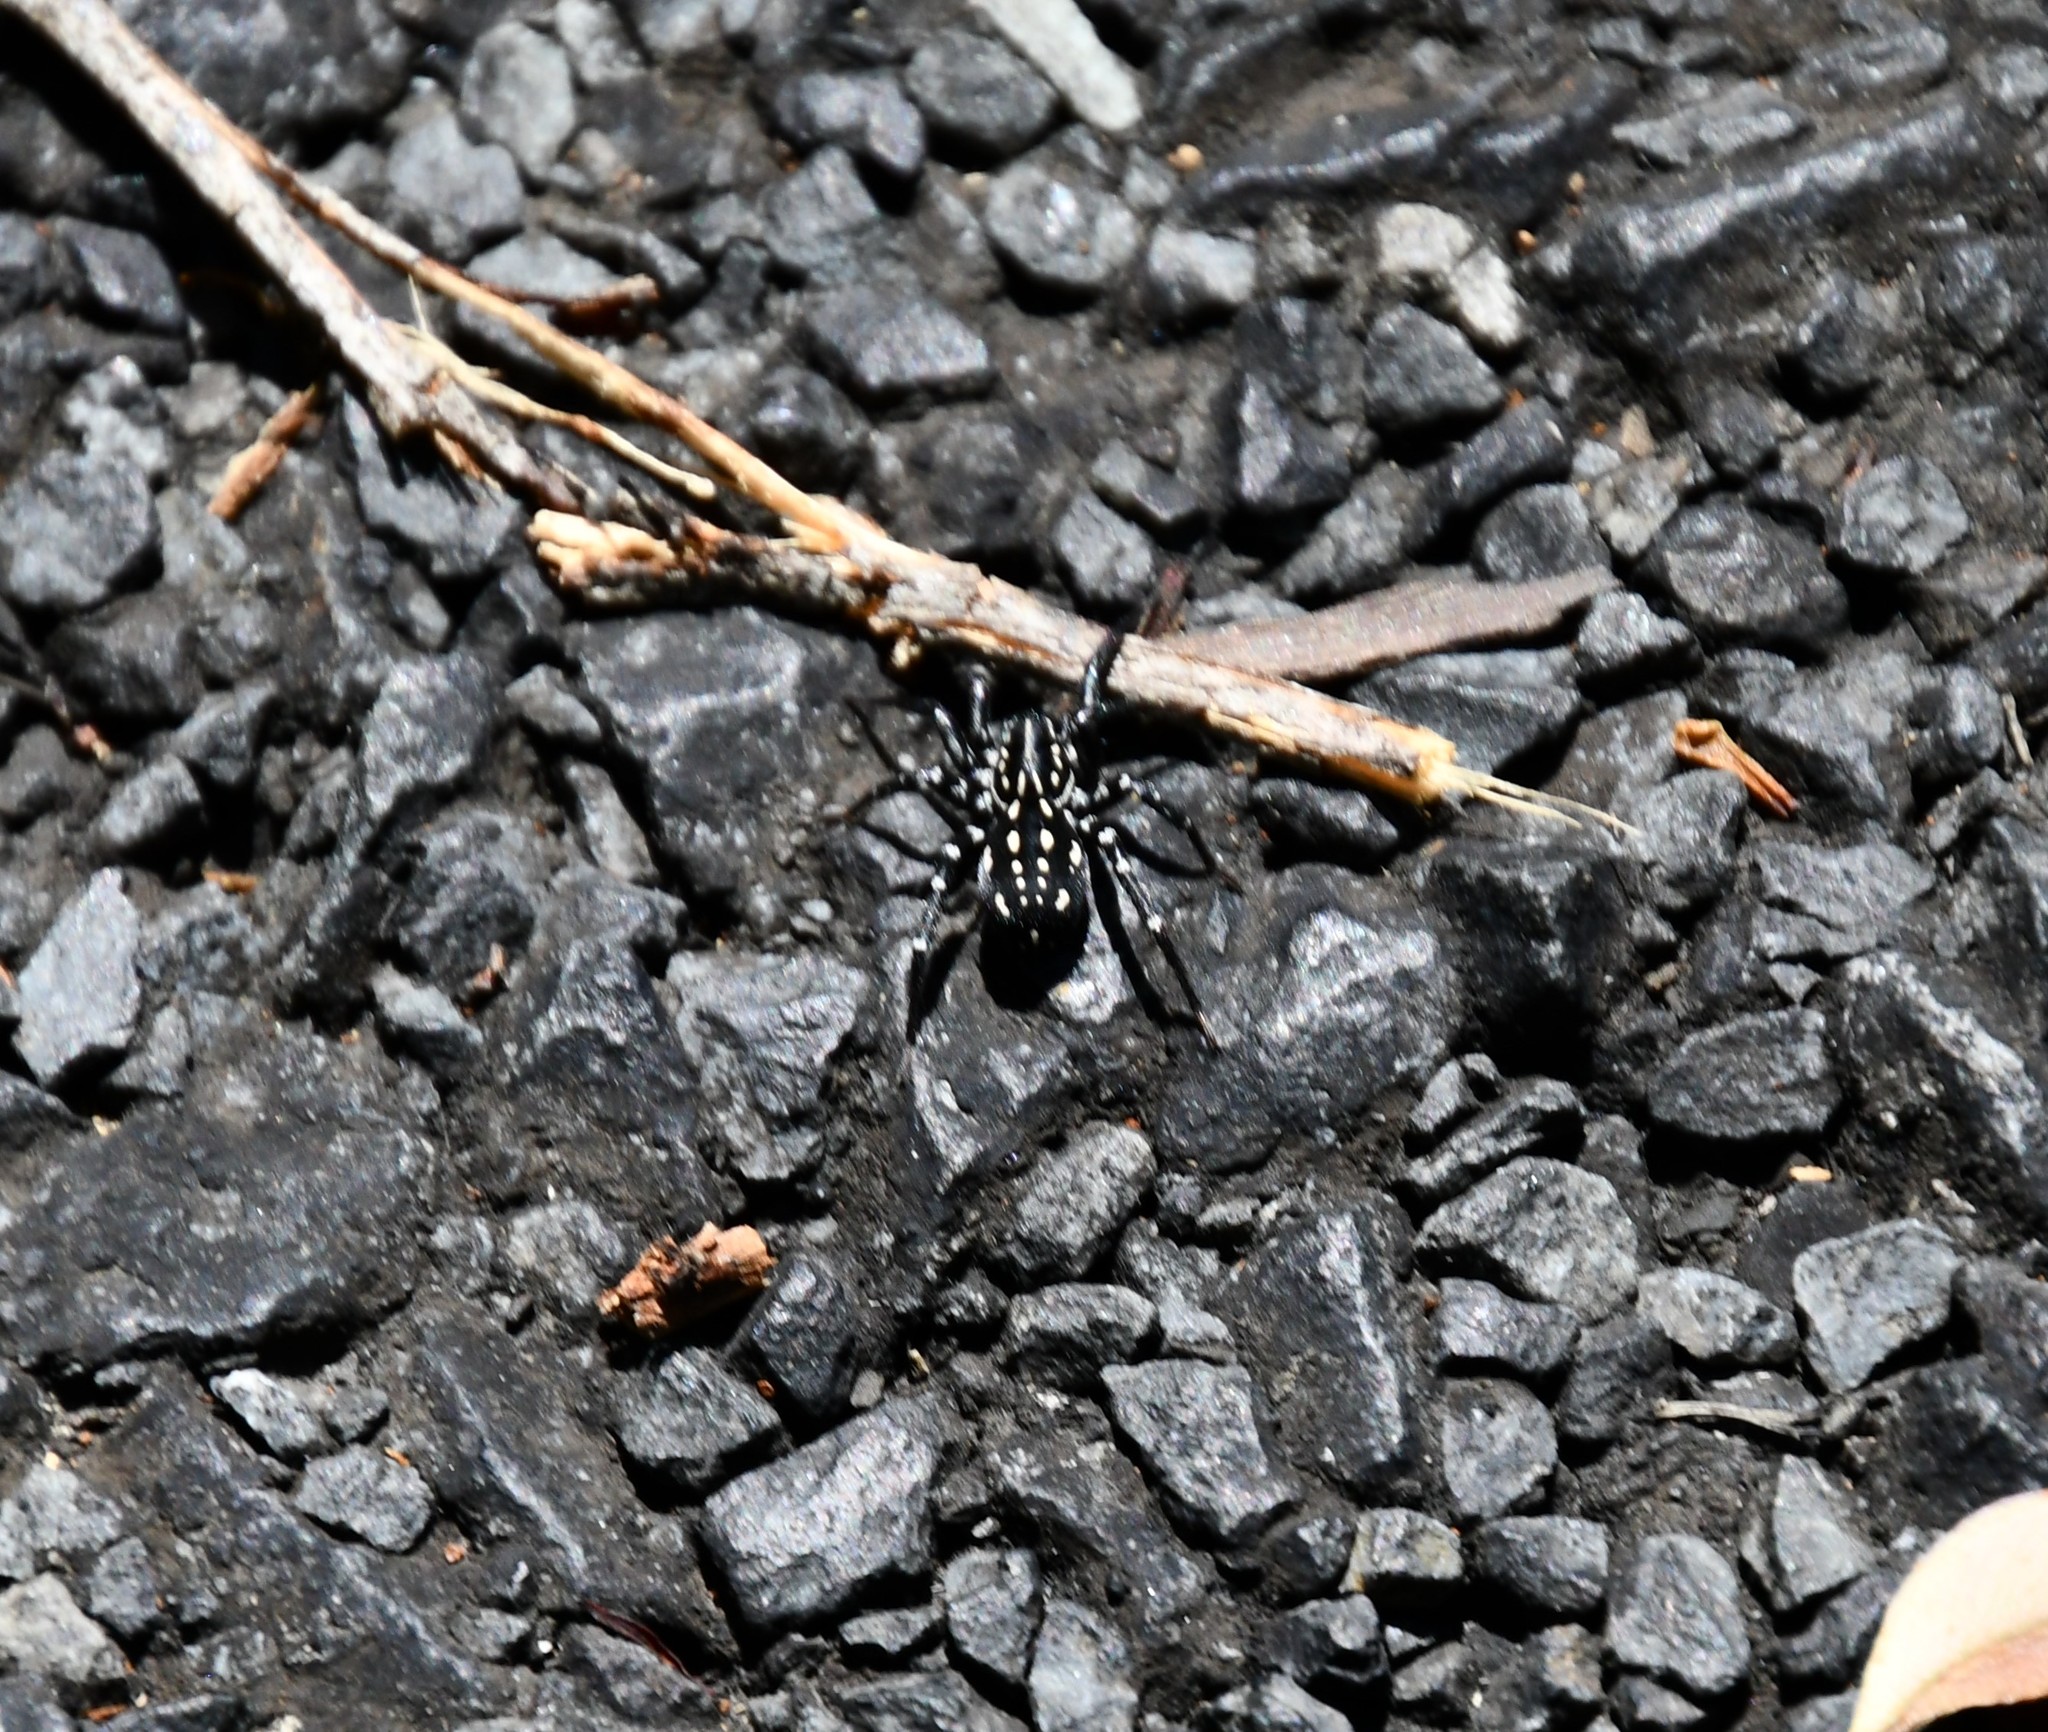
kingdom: Animalia
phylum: Arthropoda
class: Arachnida
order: Araneae
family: Corinnidae
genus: Nyssus
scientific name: Nyssus albopunctatus
